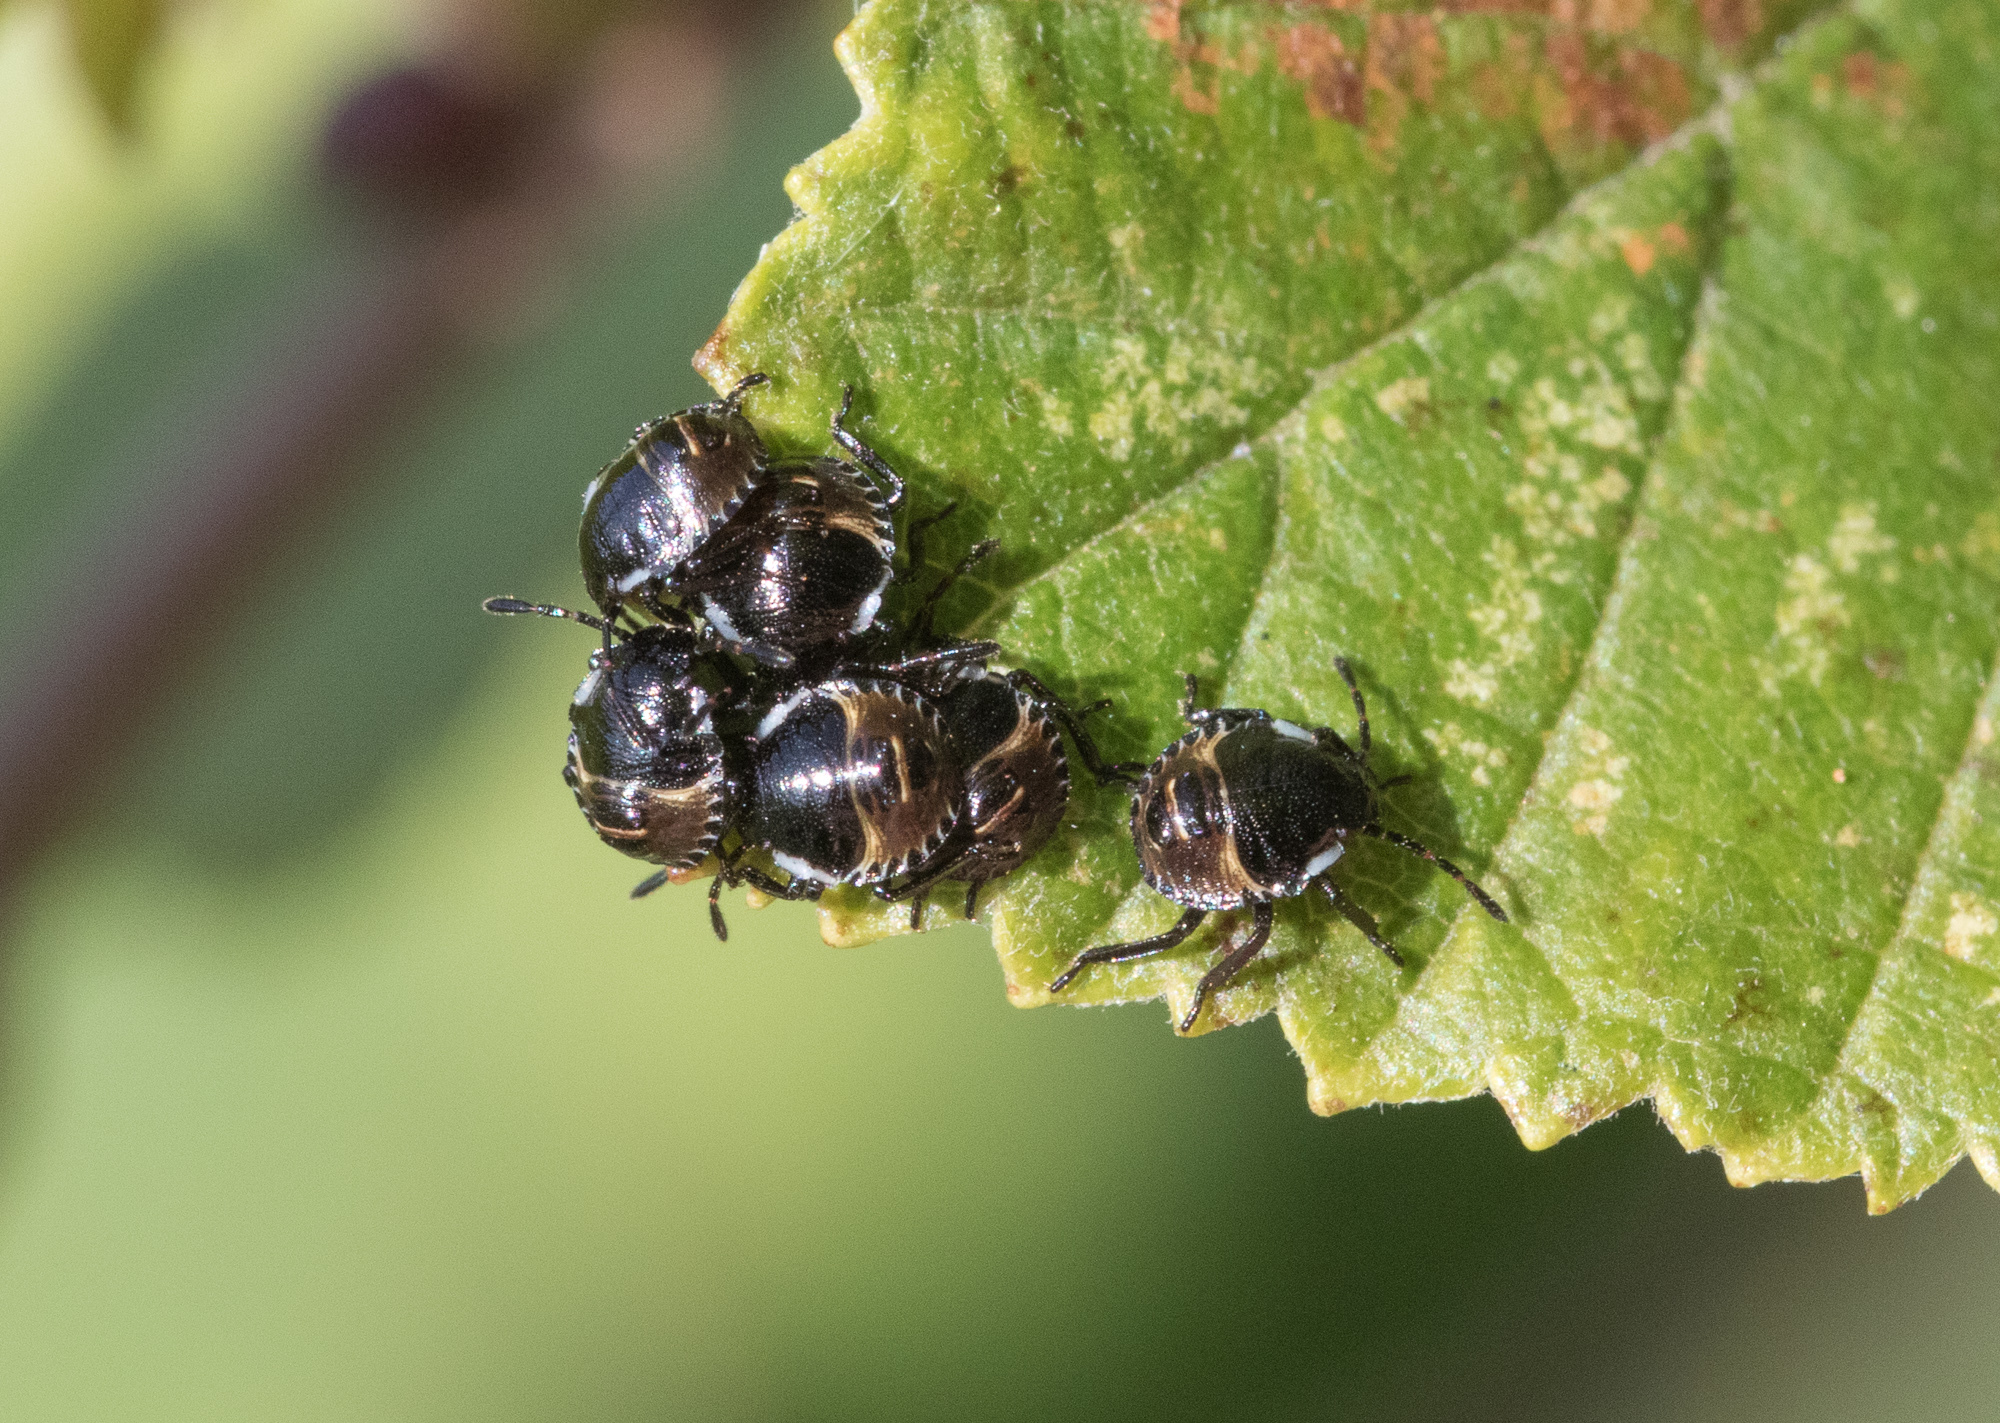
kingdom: Animalia
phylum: Arthropoda
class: Insecta
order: Hemiptera
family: Pentatomidae
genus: Palomena
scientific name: Palomena prasina
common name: Green shieldbug
